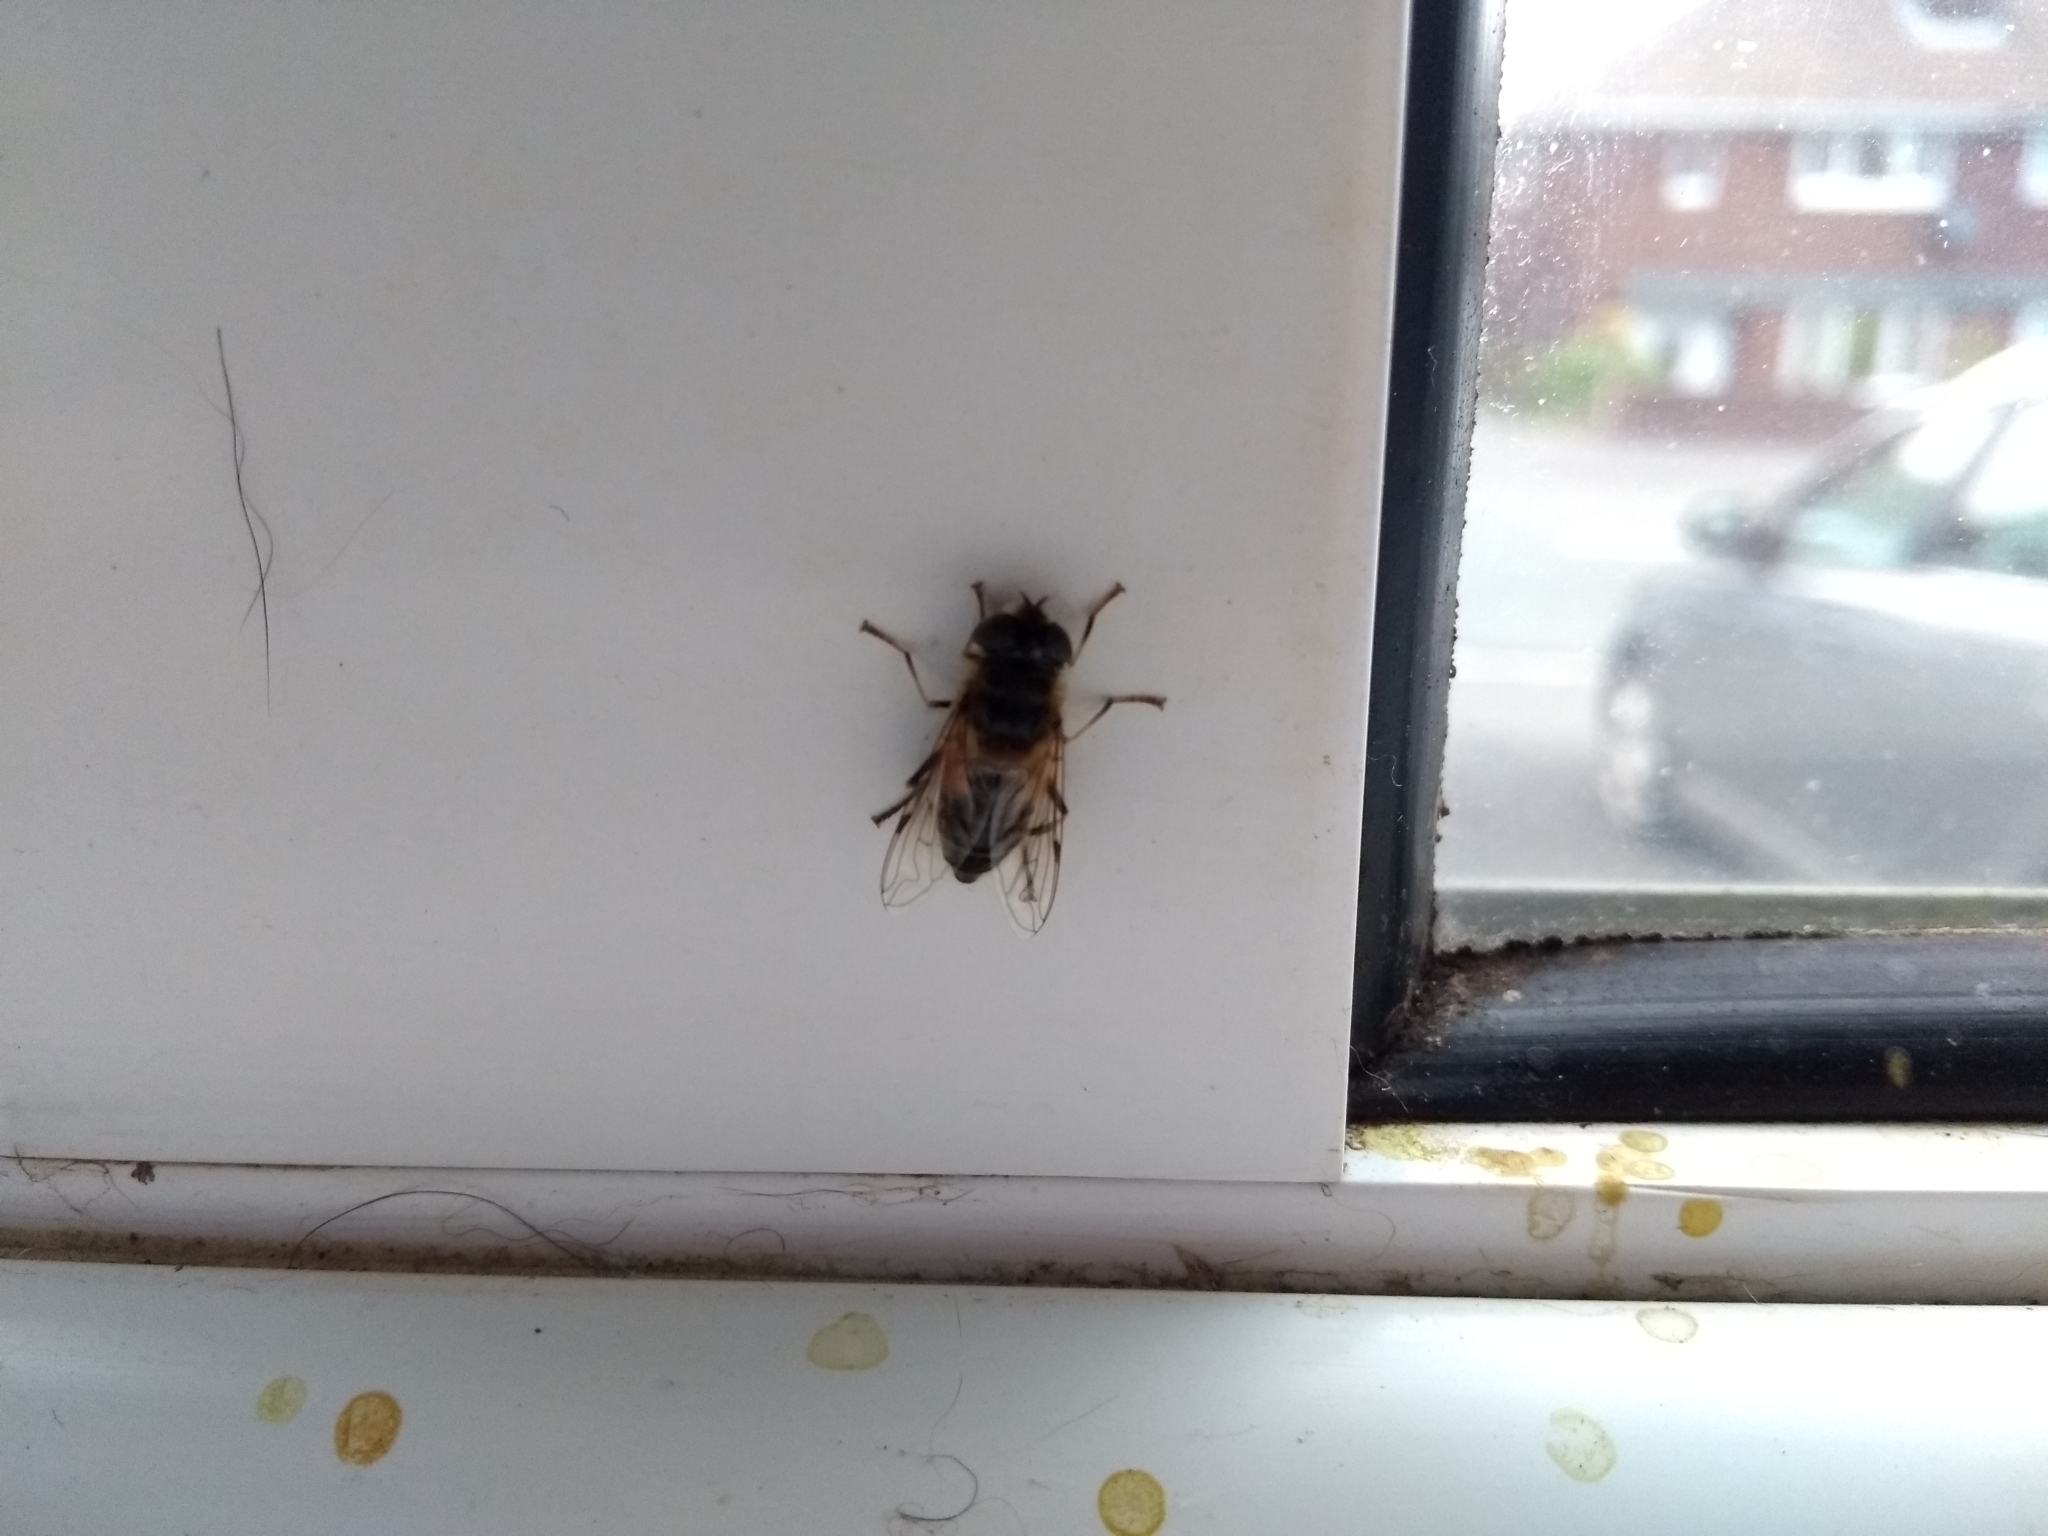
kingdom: Animalia
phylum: Arthropoda
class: Insecta
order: Diptera
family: Syrphidae
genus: Eristalis
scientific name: Eristalis pertinax
